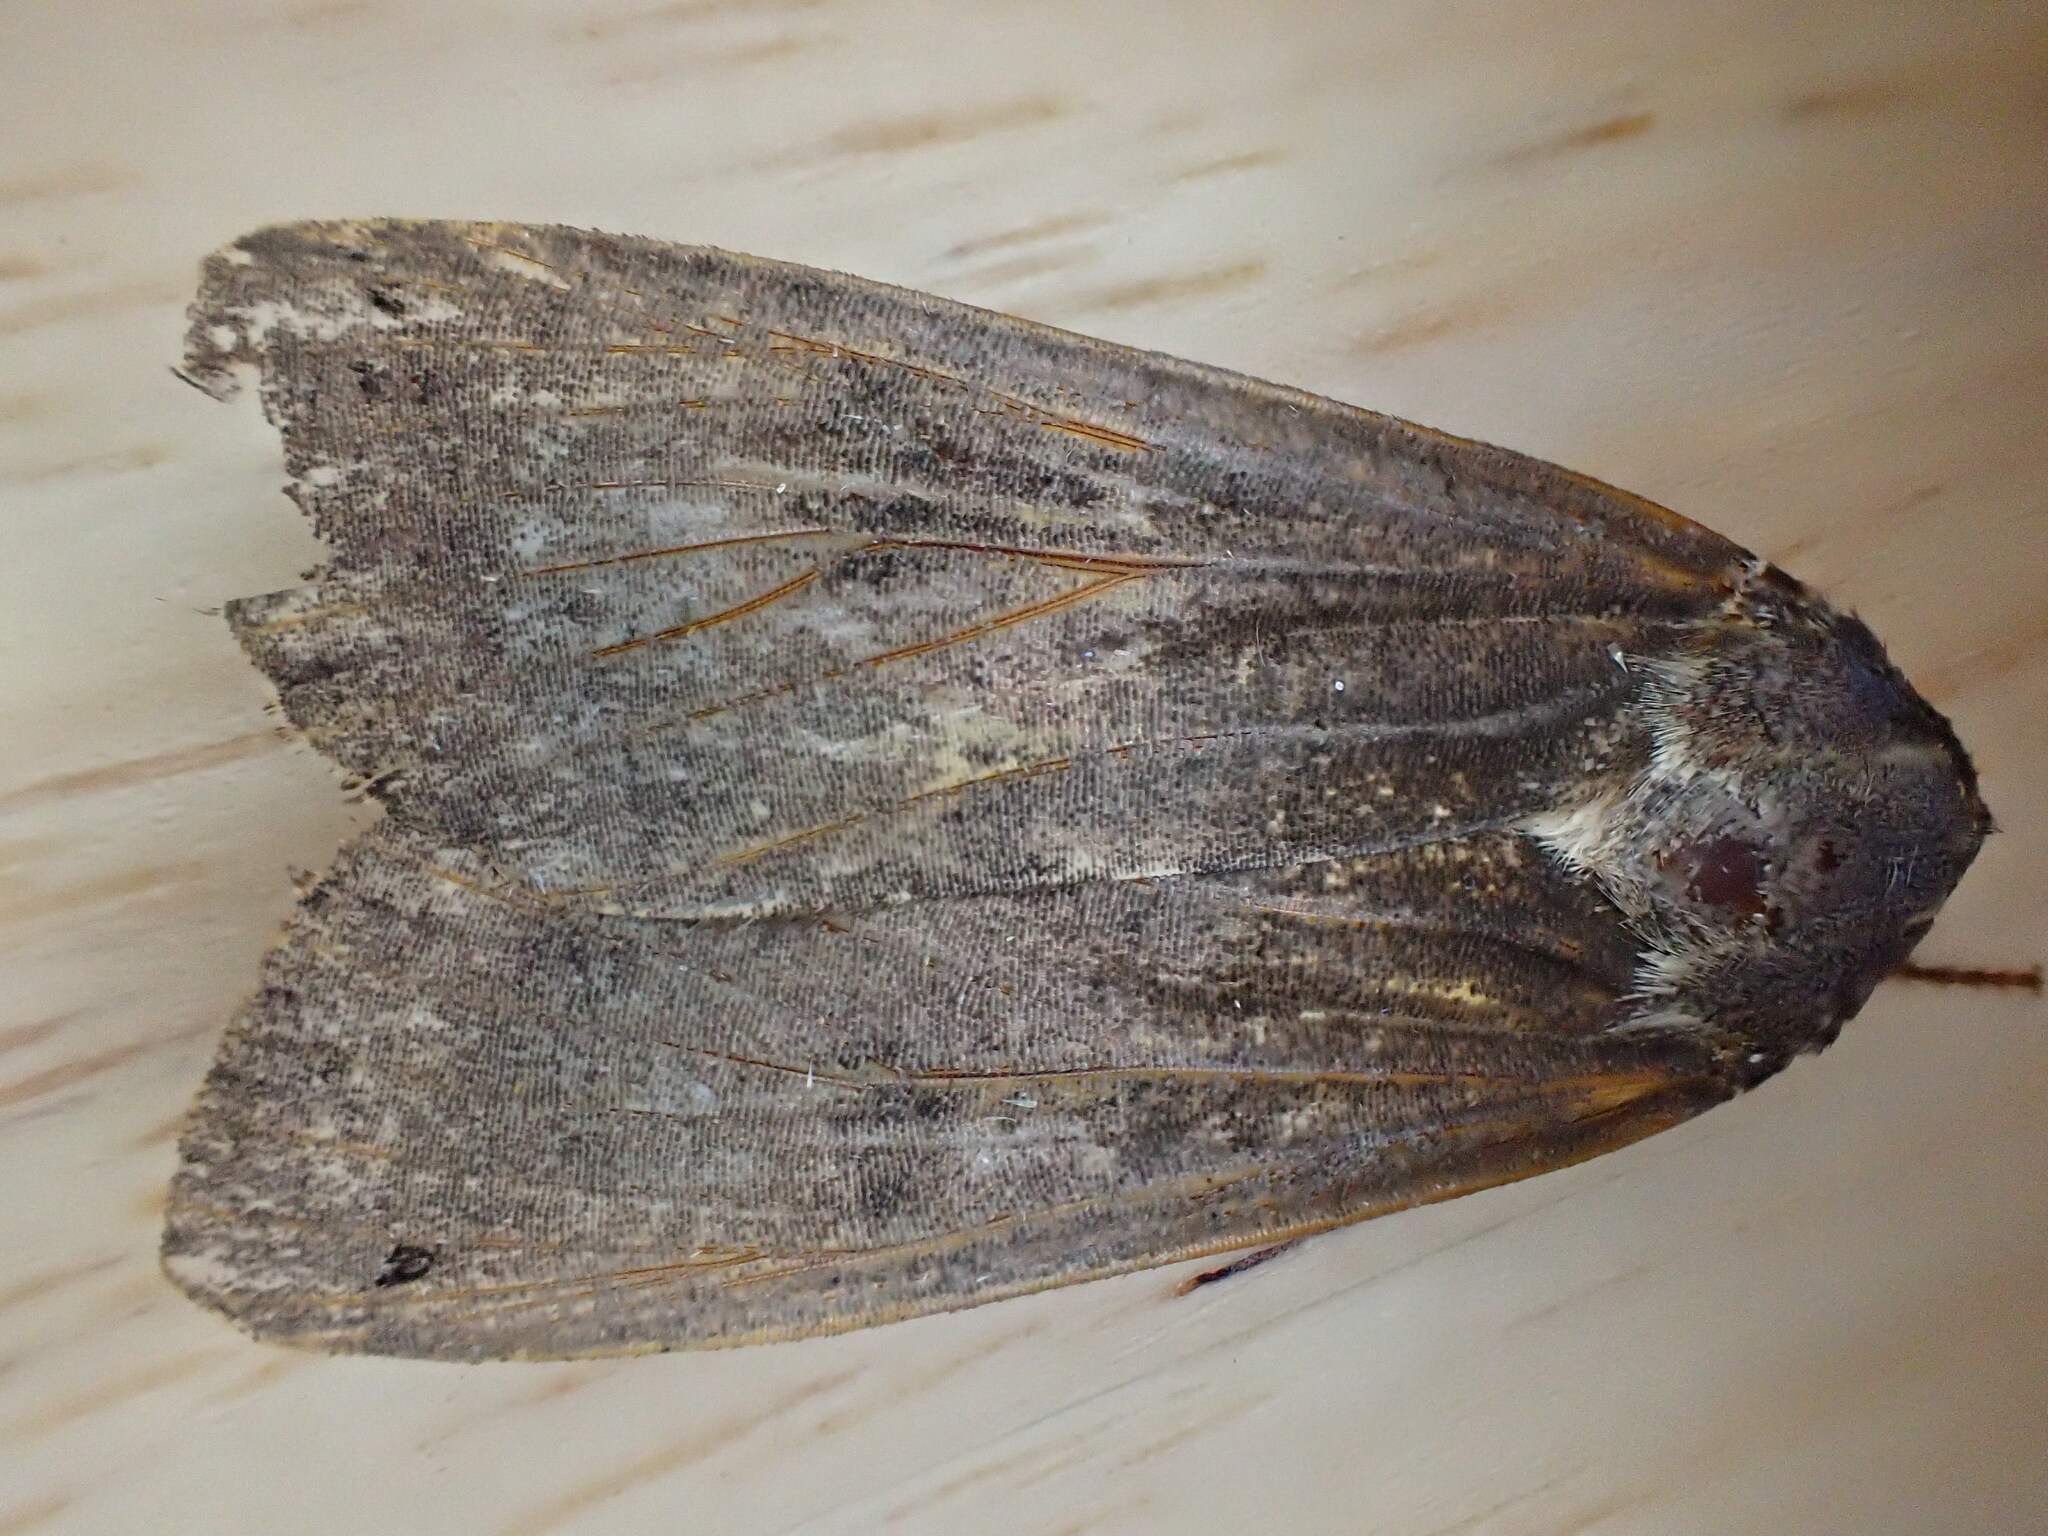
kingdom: Animalia
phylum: Arthropoda
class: Insecta
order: Lepidoptera
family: Noctuidae
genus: Noctua
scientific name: Noctua pronuba
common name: Large yellow underwing
